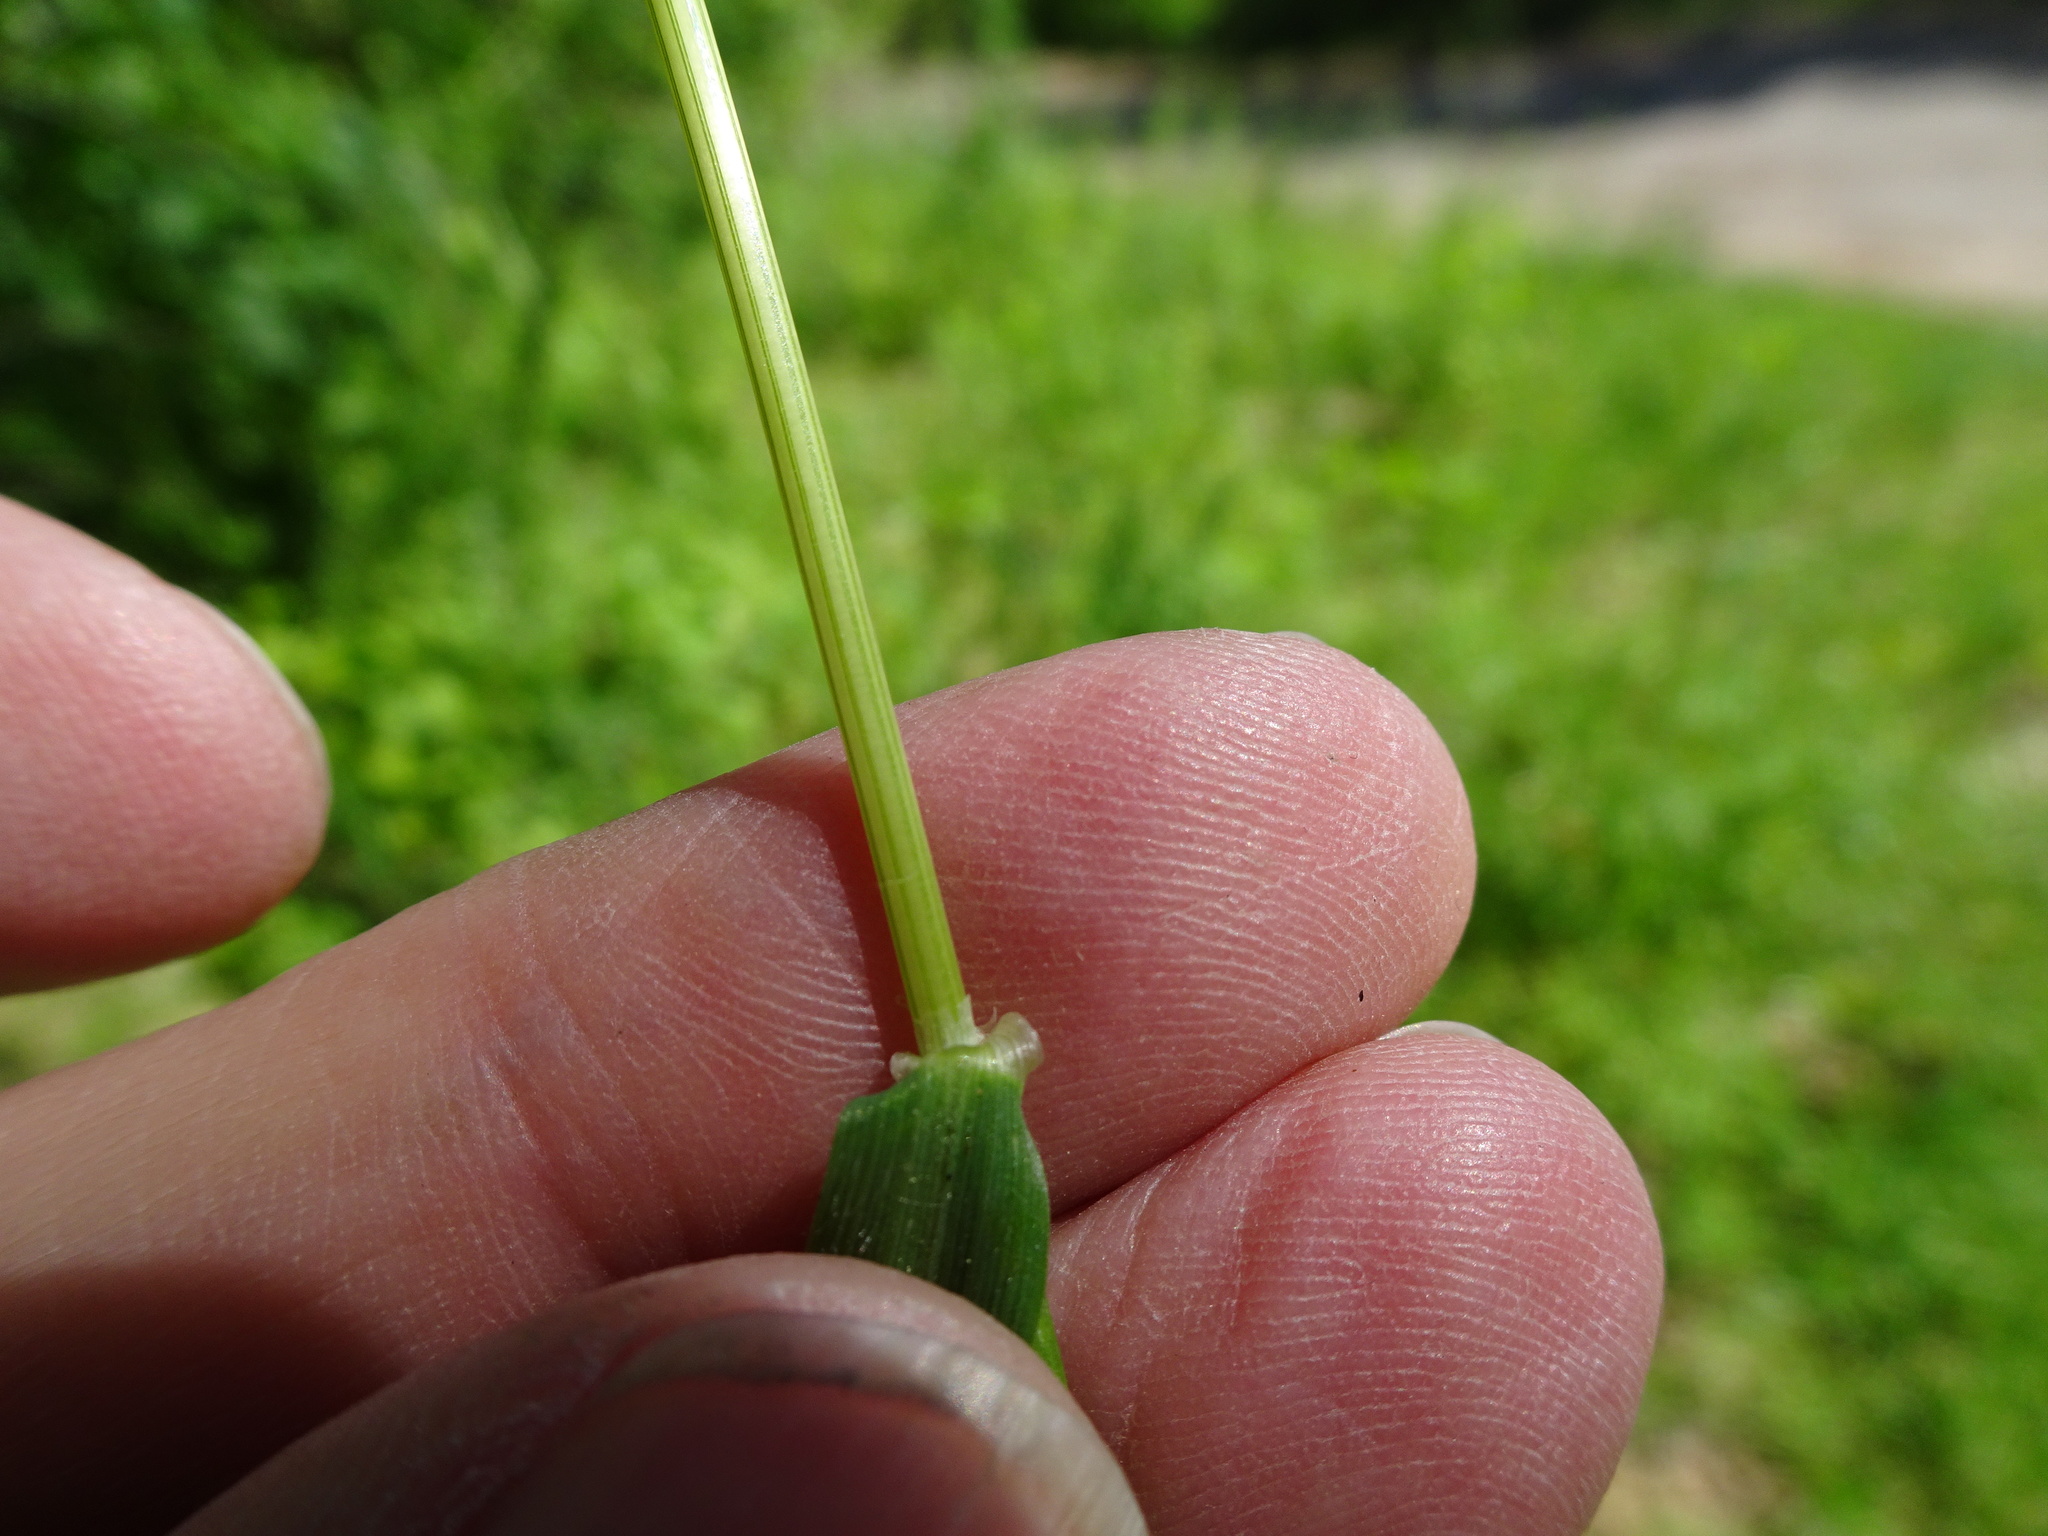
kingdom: Plantae
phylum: Tracheophyta
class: Liliopsida
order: Poales
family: Poaceae
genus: Hordeum
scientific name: Hordeum murinum
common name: Wall barley
